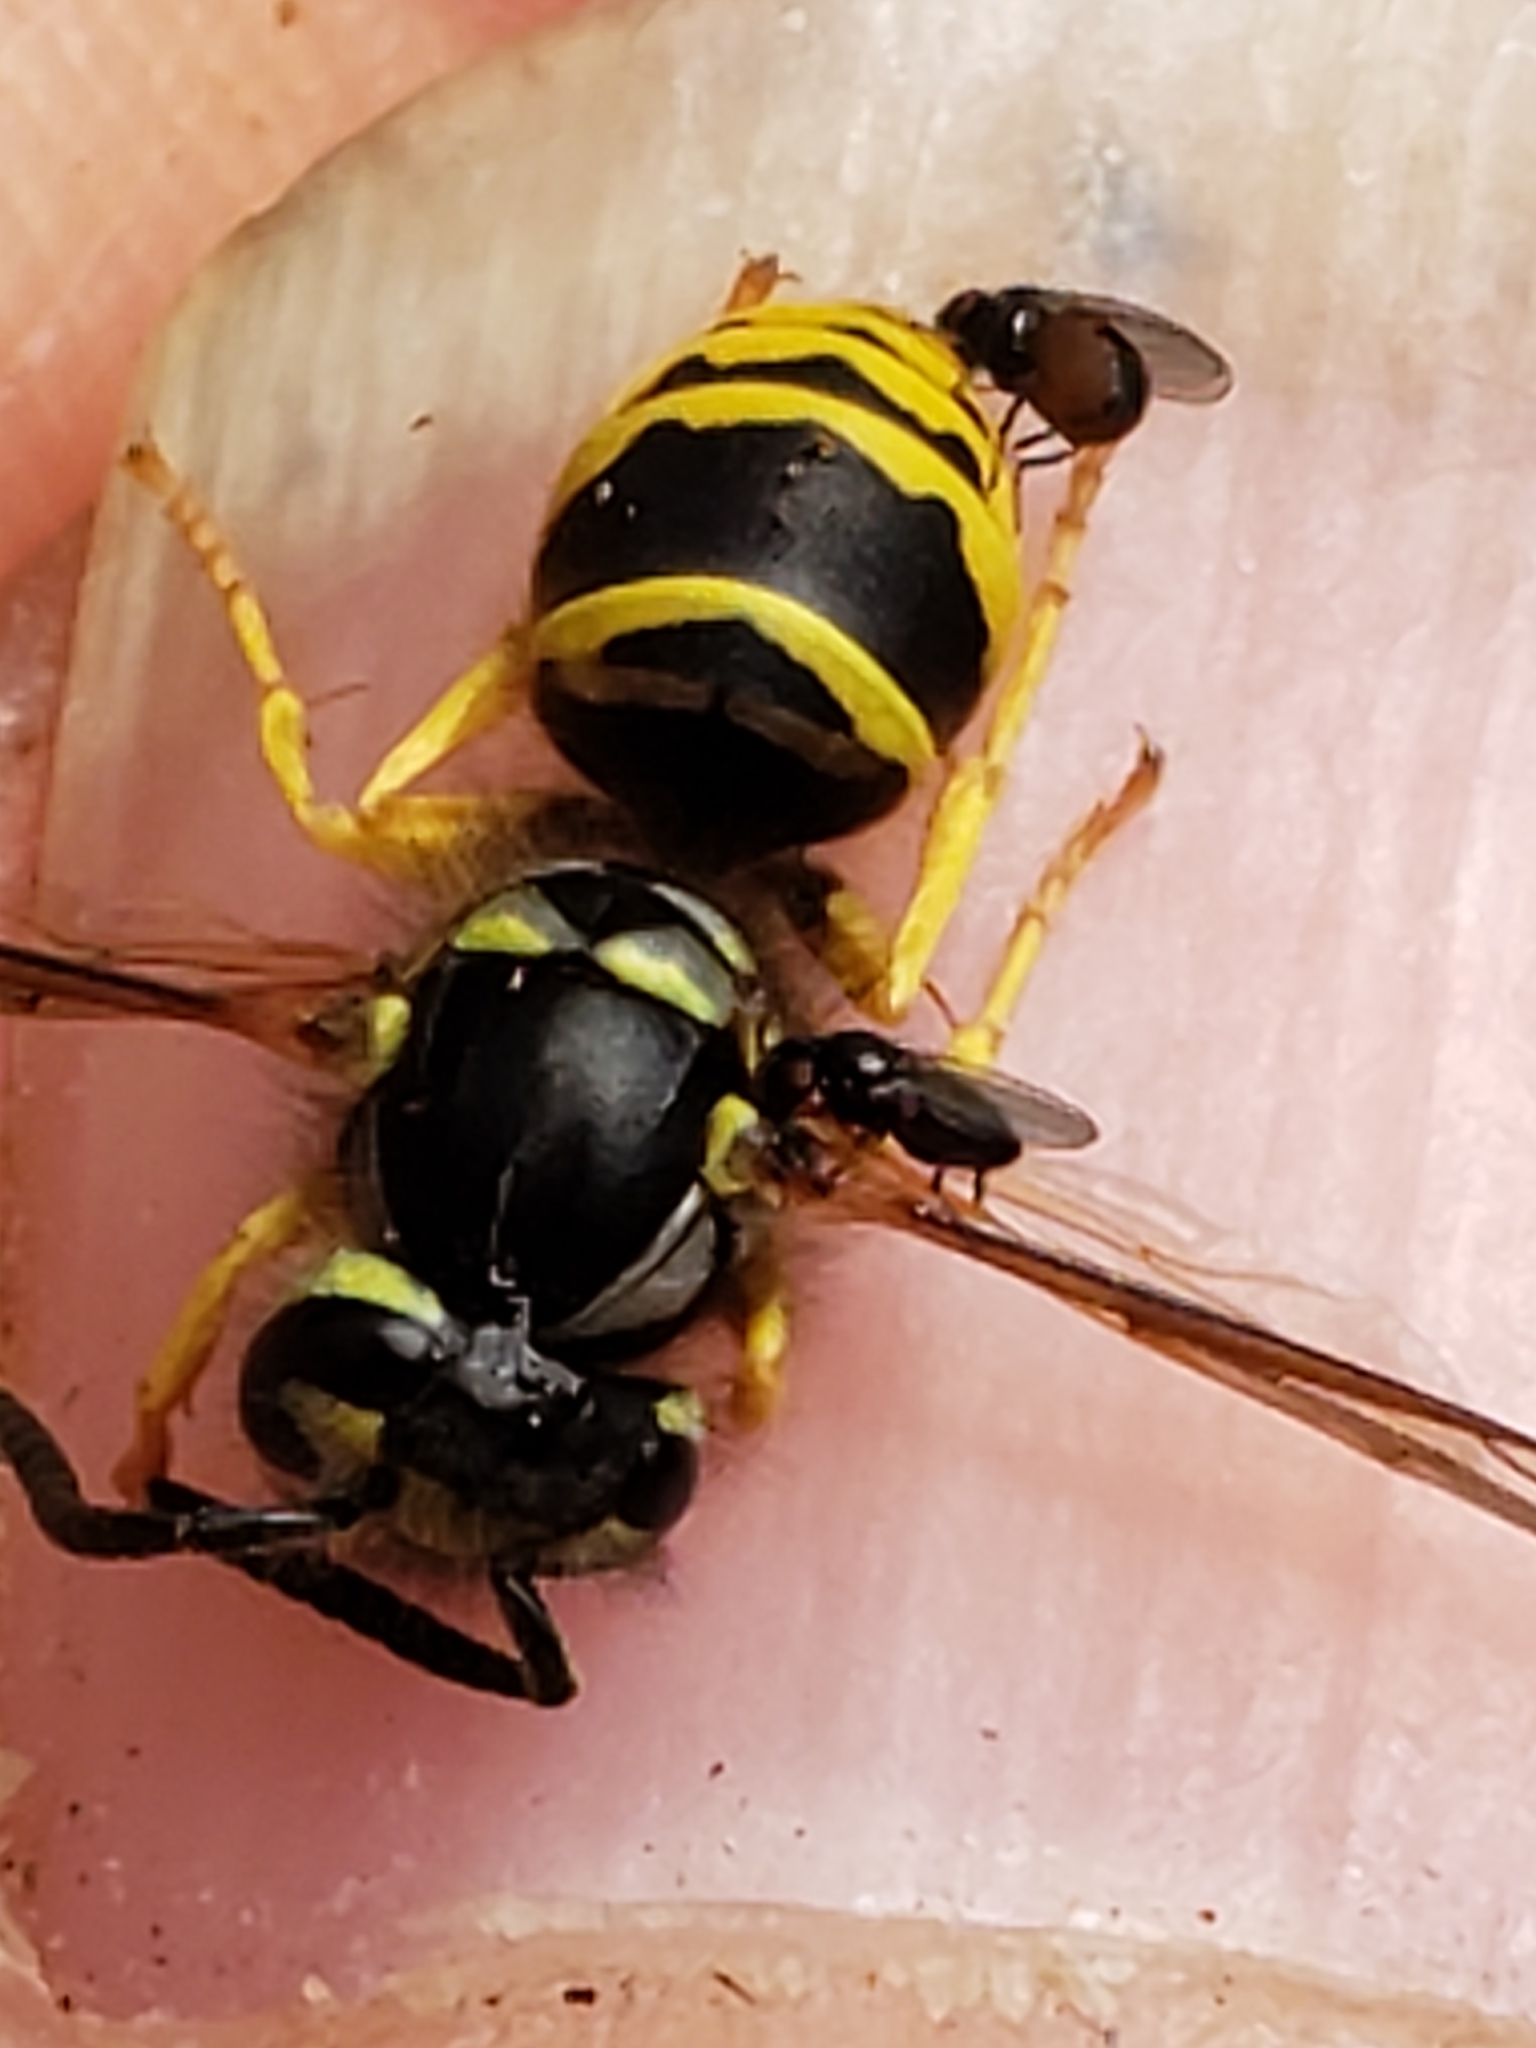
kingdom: Animalia
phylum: Arthropoda
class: Insecta
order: Hymenoptera
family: Vespidae
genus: Vespula
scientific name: Vespula maculifrons
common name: Eastern yellowjacket
